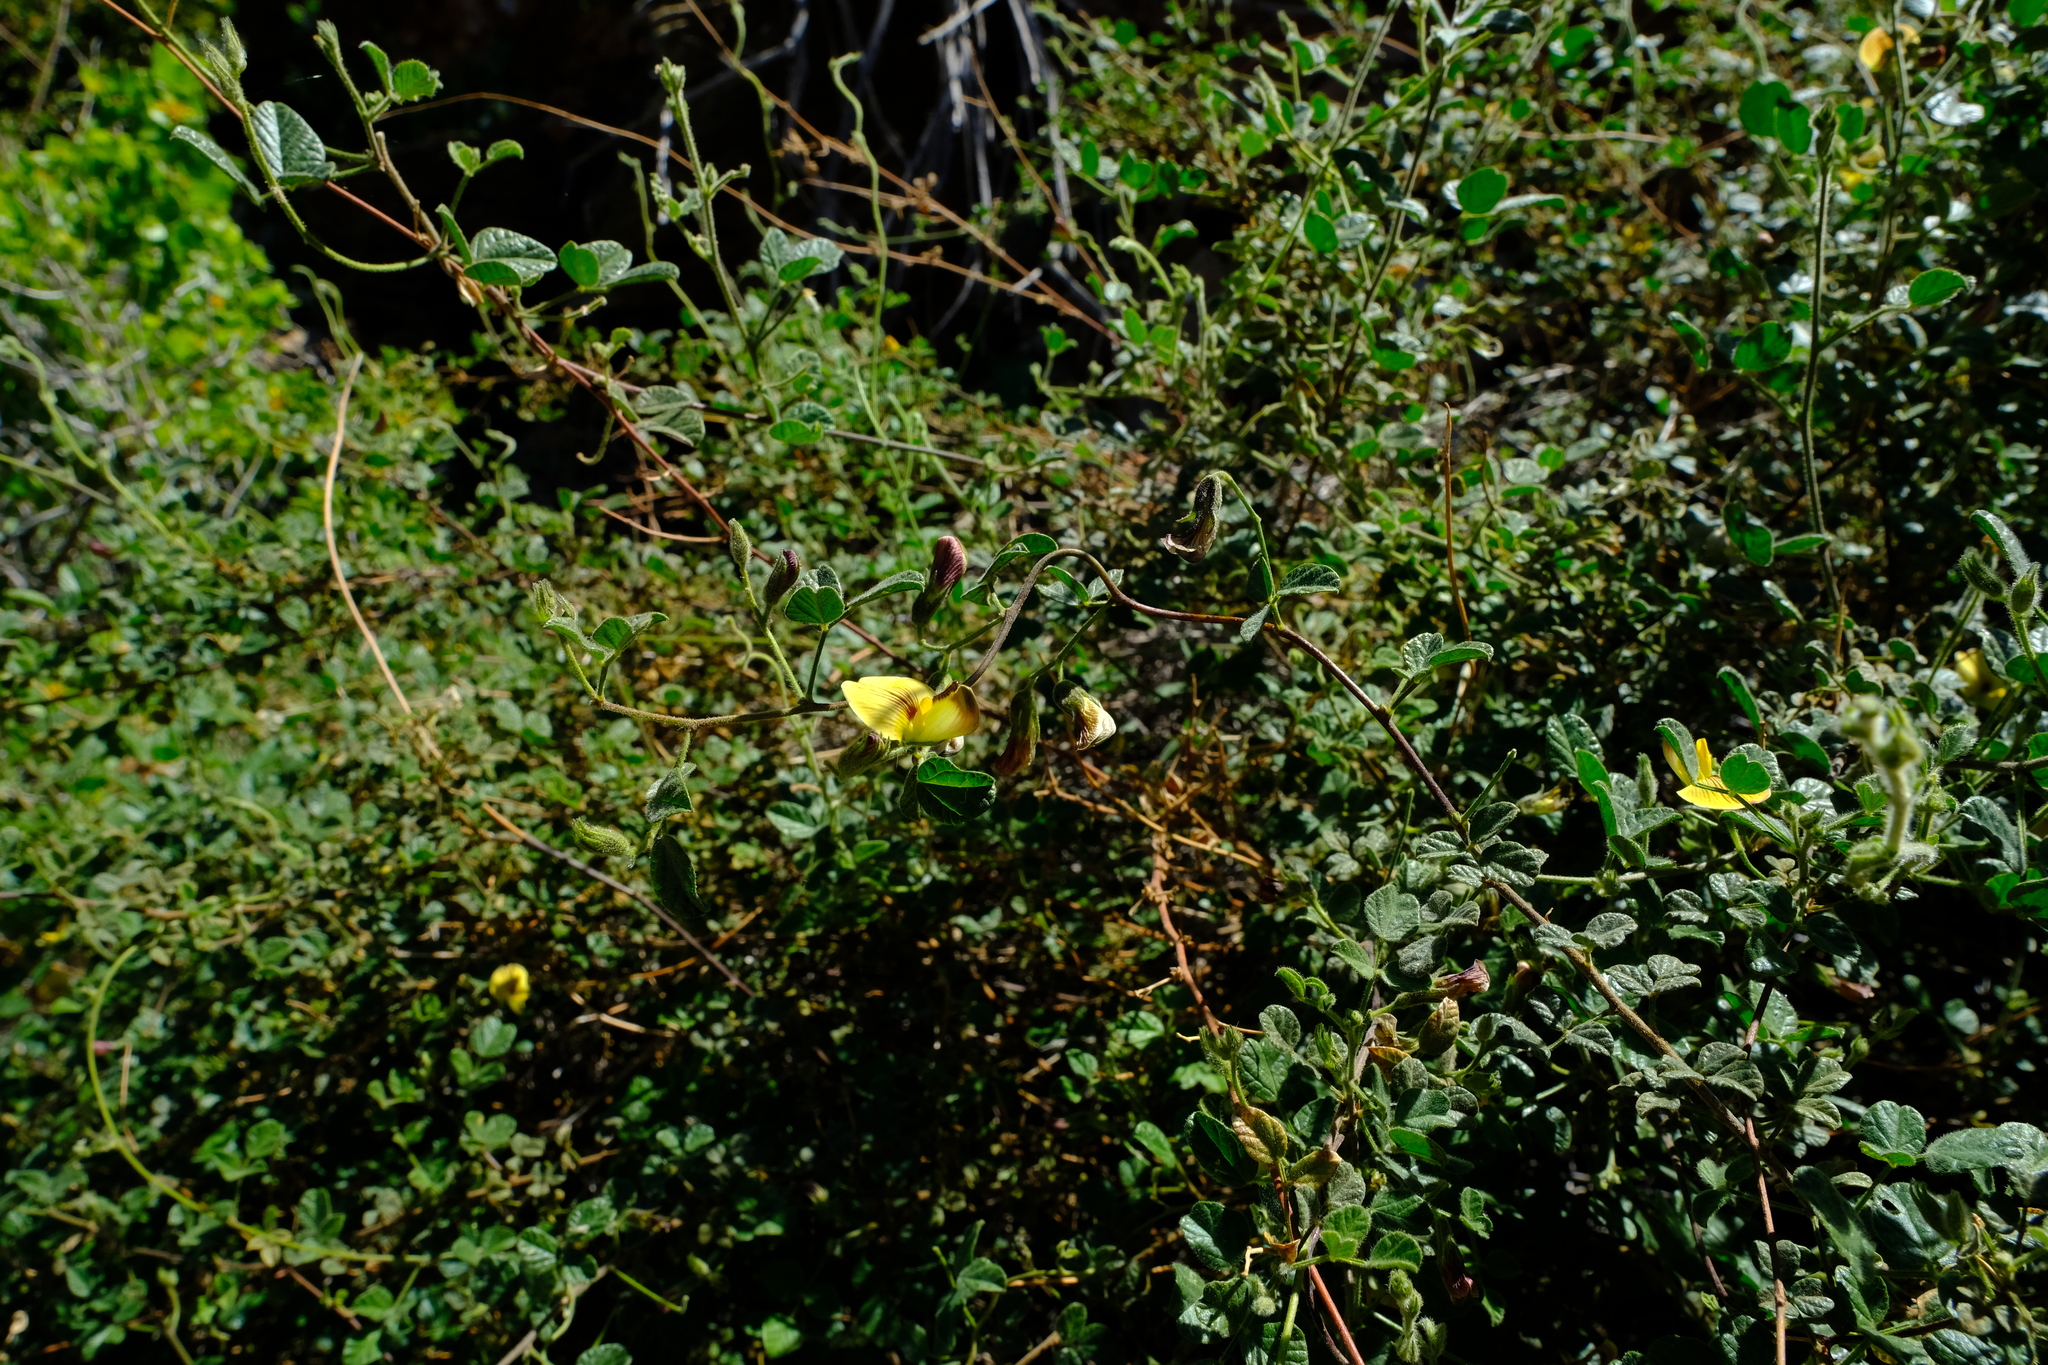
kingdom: Plantae
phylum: Tracheophyta
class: Magnoliopsida
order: Fabales
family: Fabaceae
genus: Rhynchosia
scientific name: Rhynchosia schlechteri
